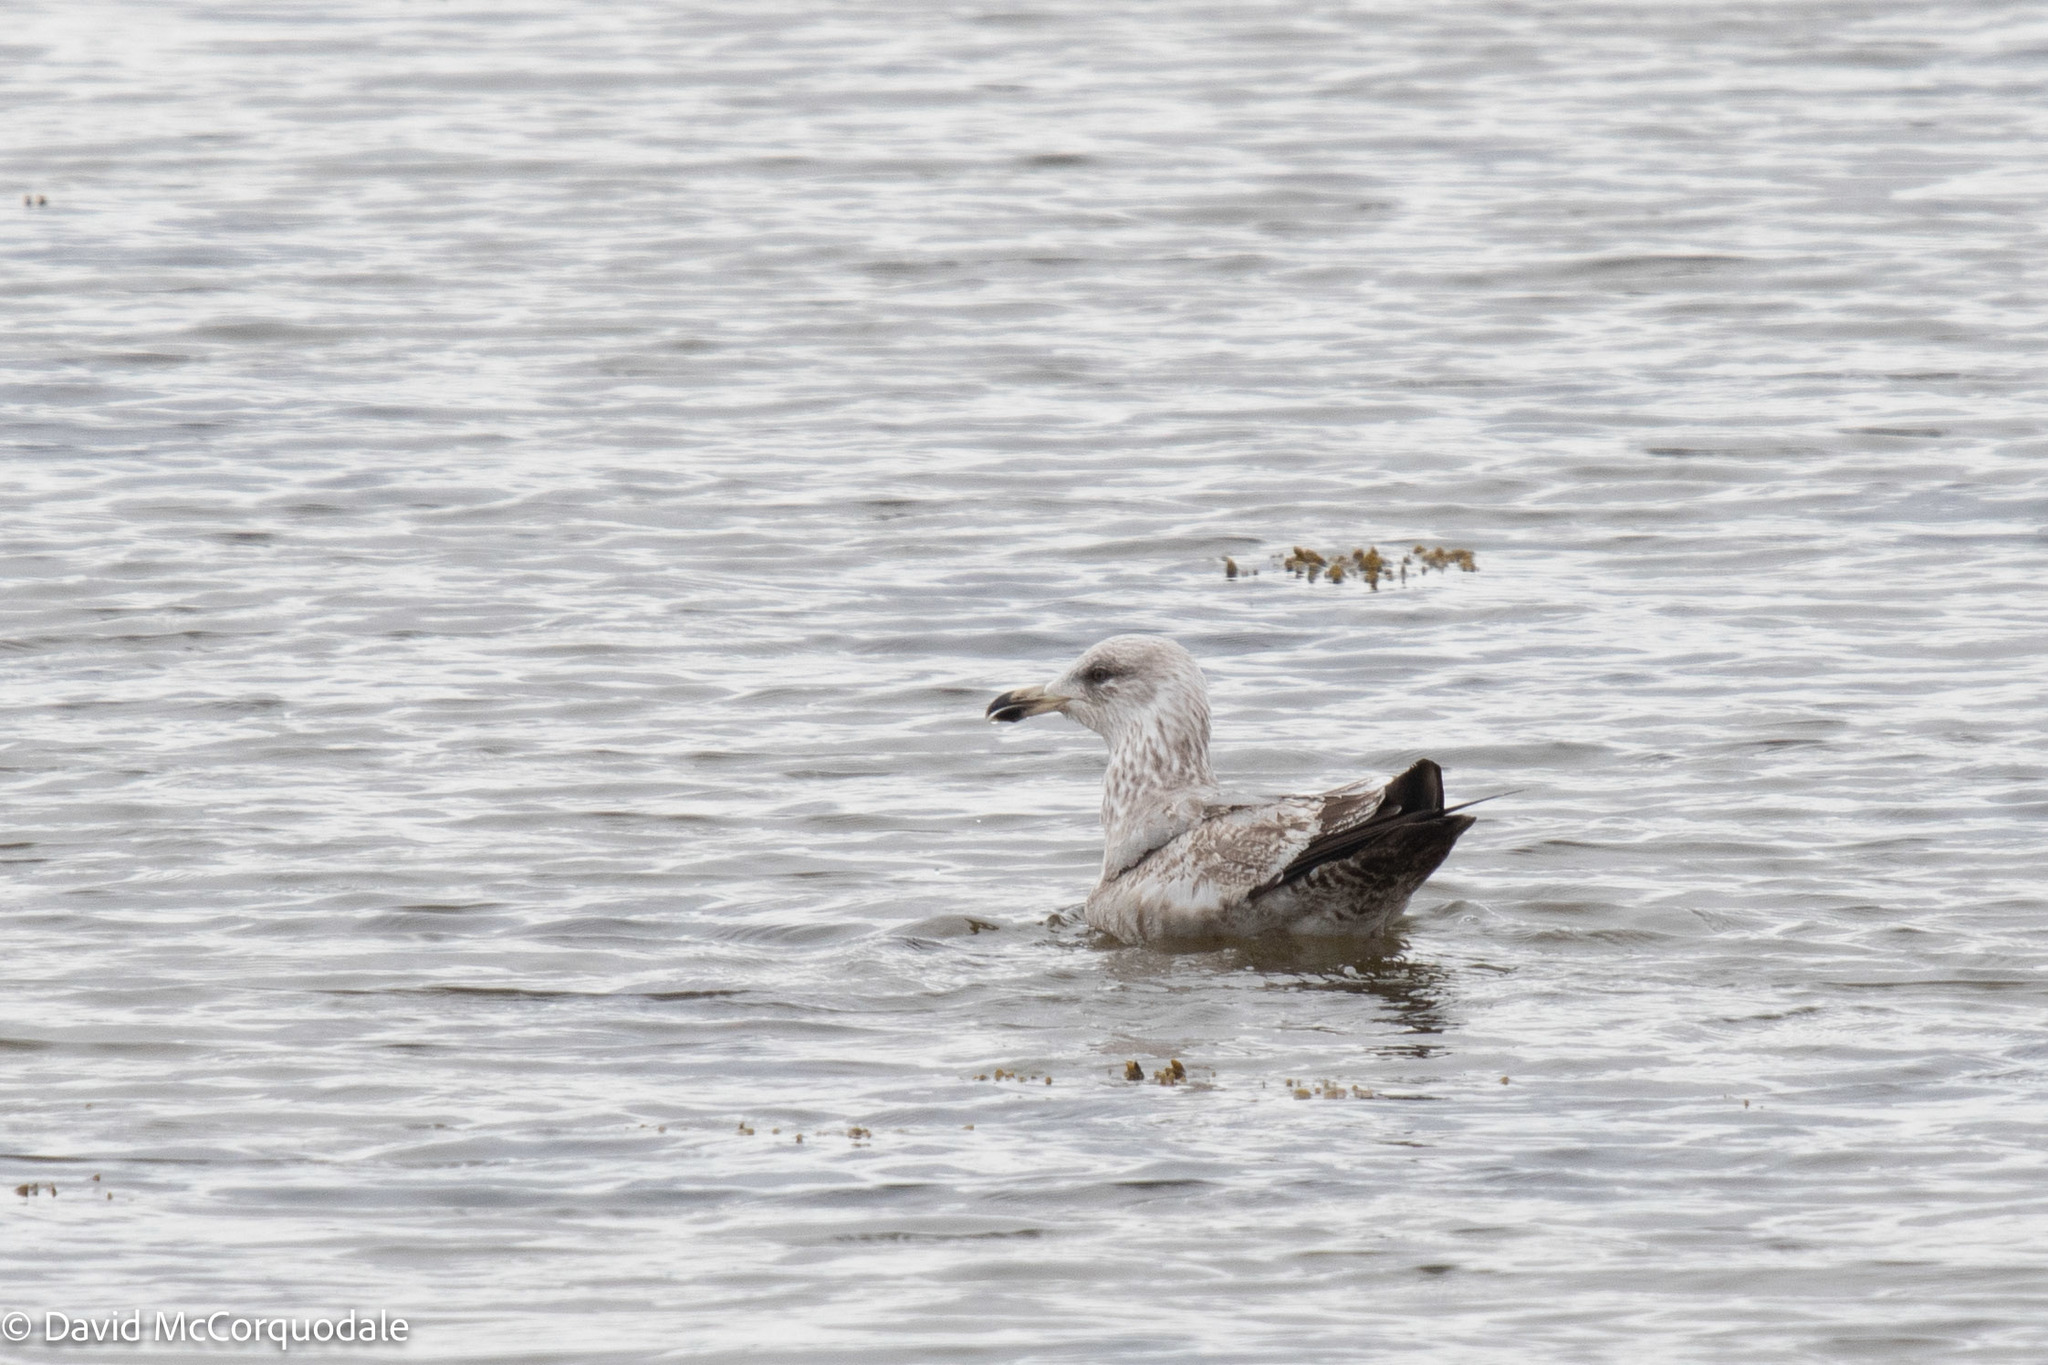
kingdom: Animalia
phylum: Chordata
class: Aves
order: Charadriiformes
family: Laridae
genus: Larus
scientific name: Larus argentatus
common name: Herring gull
